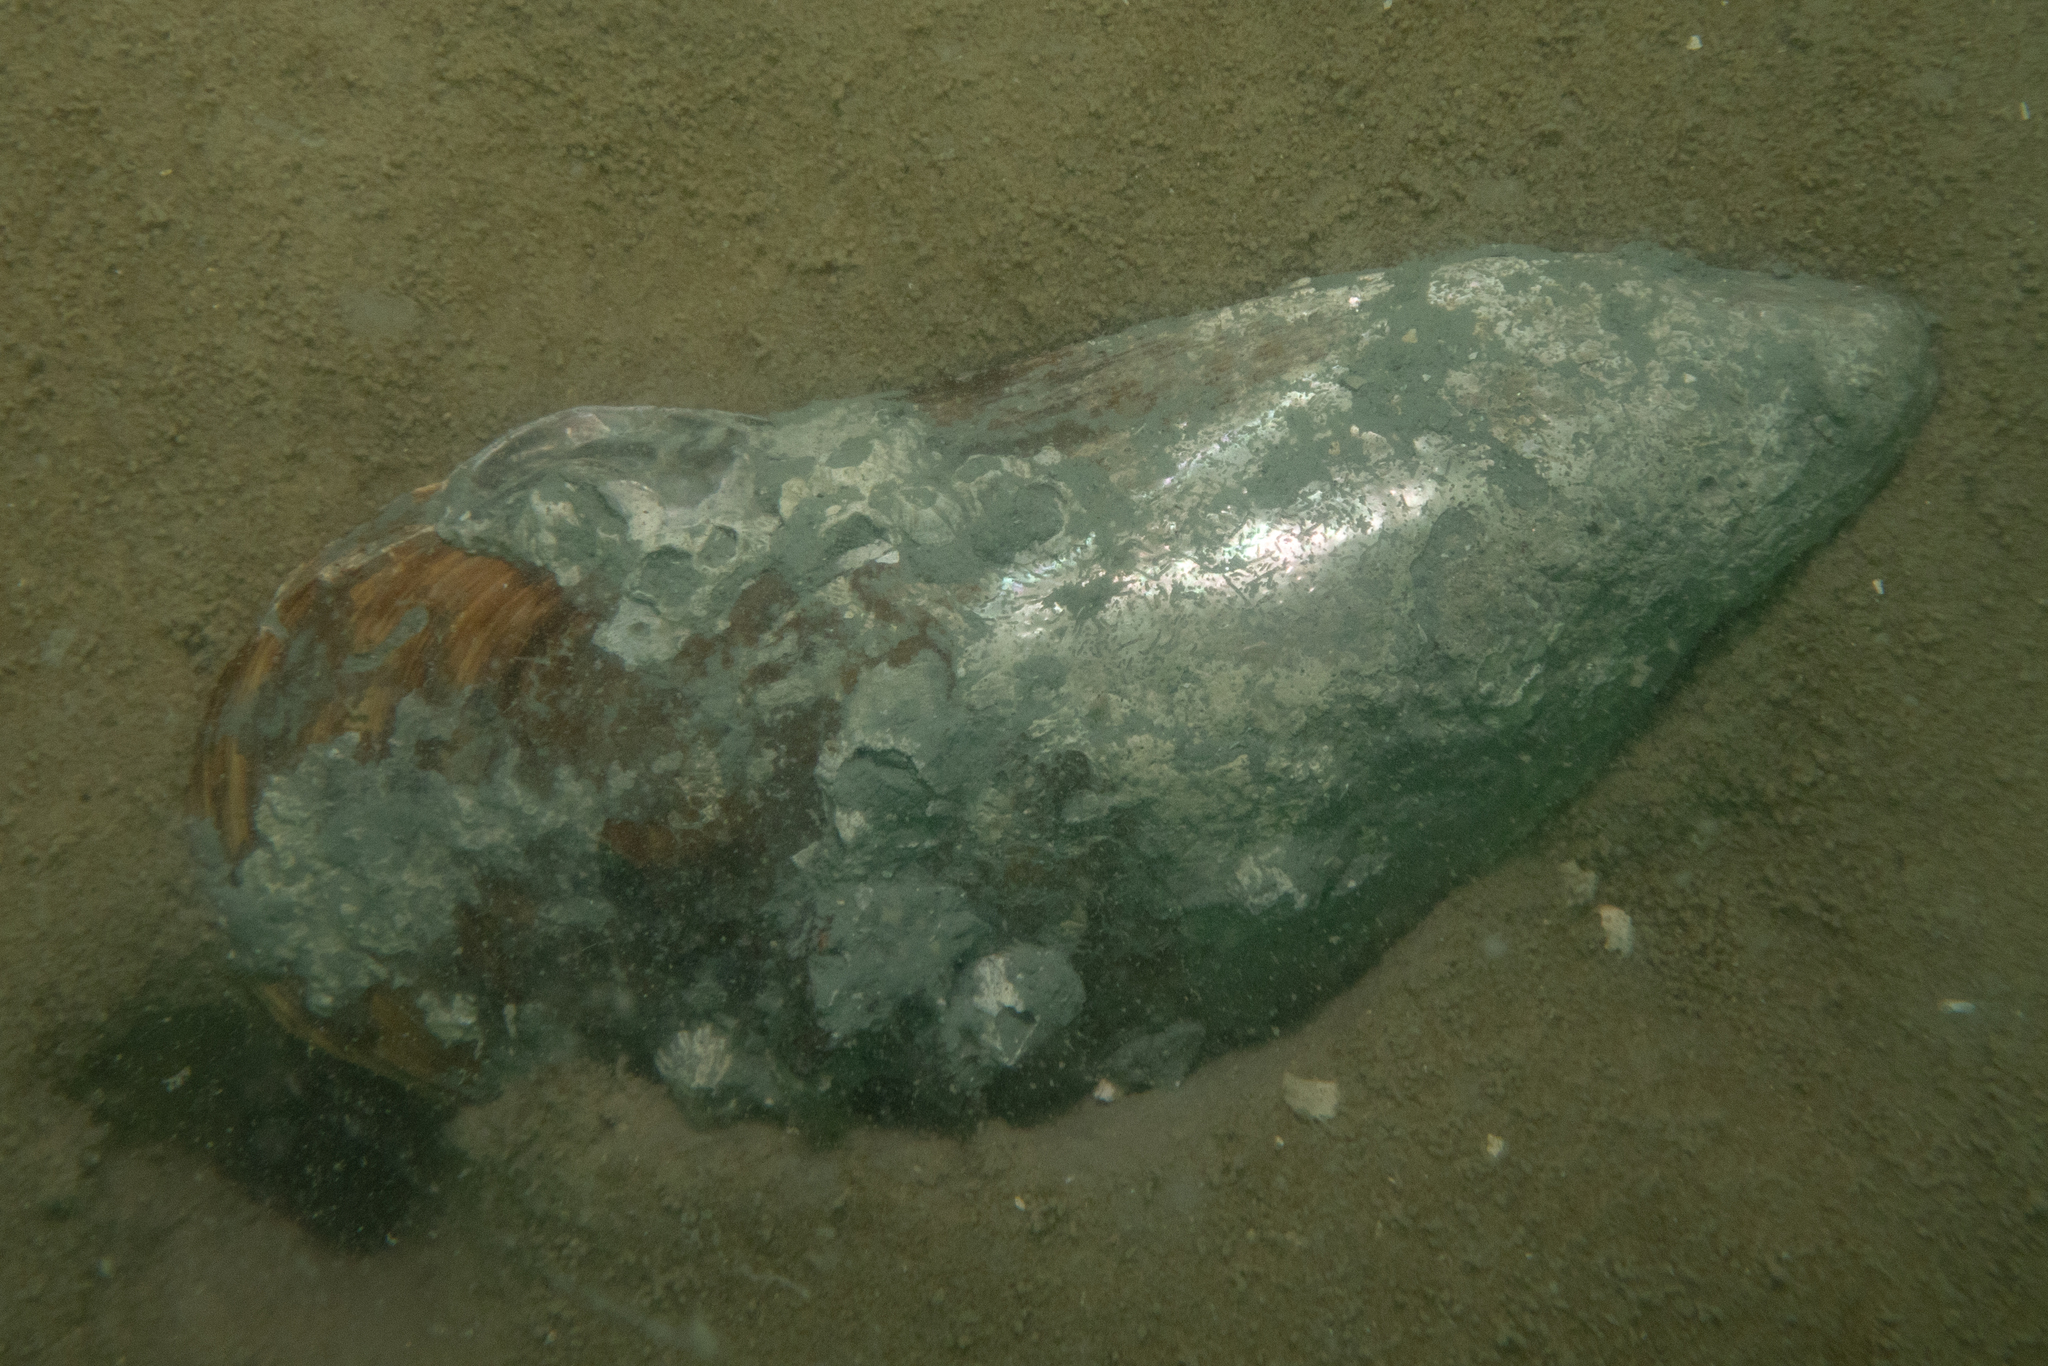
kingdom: Animalia
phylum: Mollusca
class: Bivalvia
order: Mytilida
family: Mytilidae
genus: Perna
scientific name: Perna canaliculus
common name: New zealand greenshelltm
